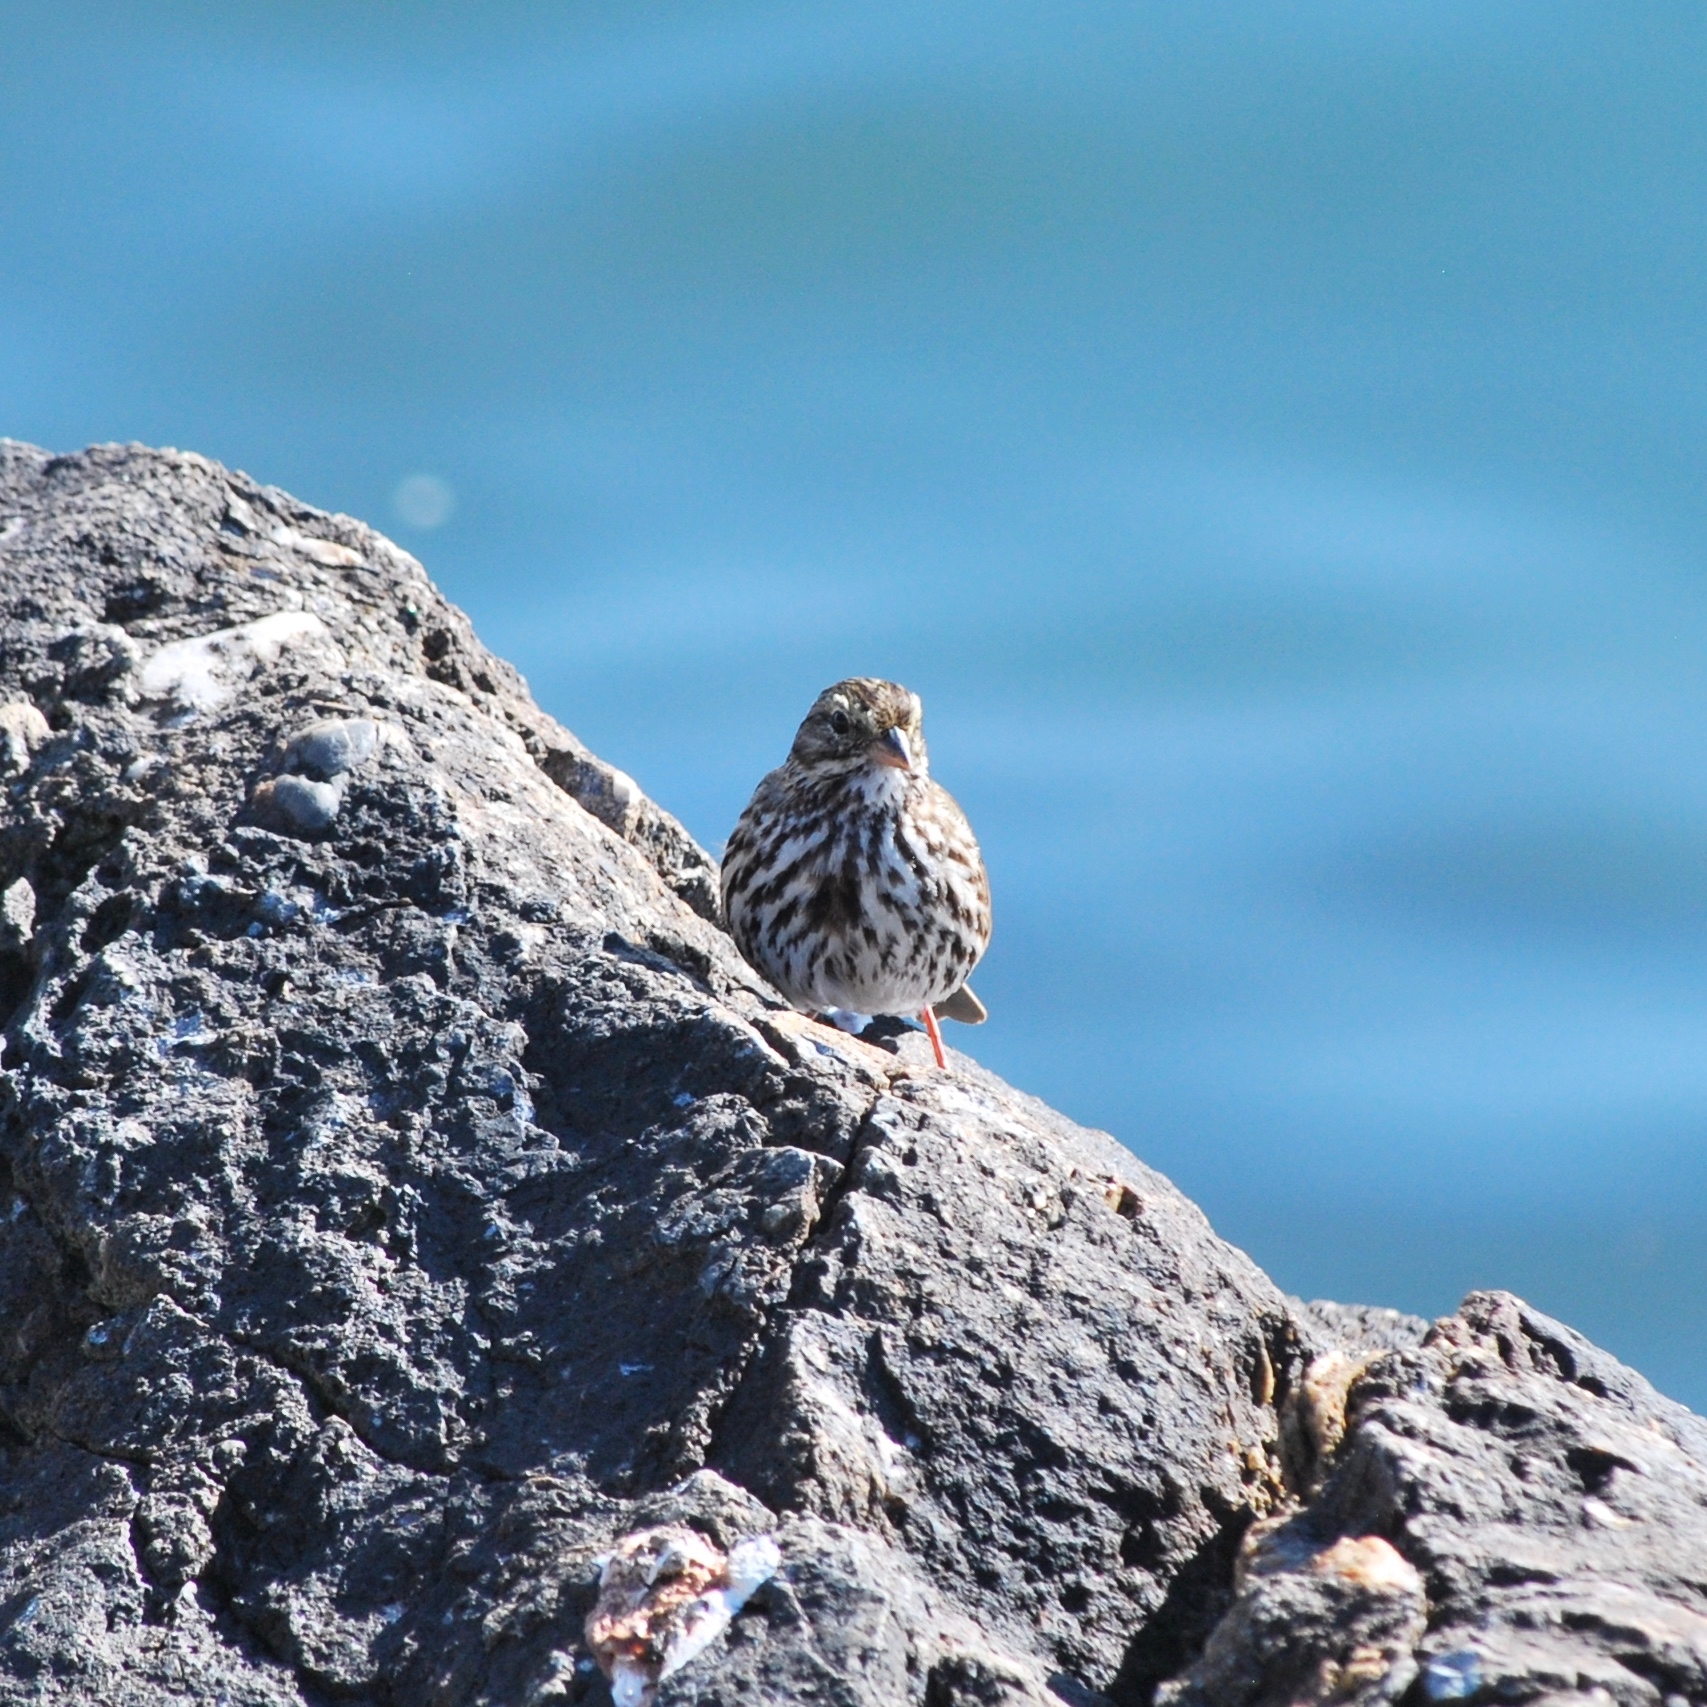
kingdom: Animalia
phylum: Chordata
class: Aves
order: Passeriformes
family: Passerellidae
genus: Passerculus
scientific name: Passerculus sandwichensis
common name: Savannah sparrow
